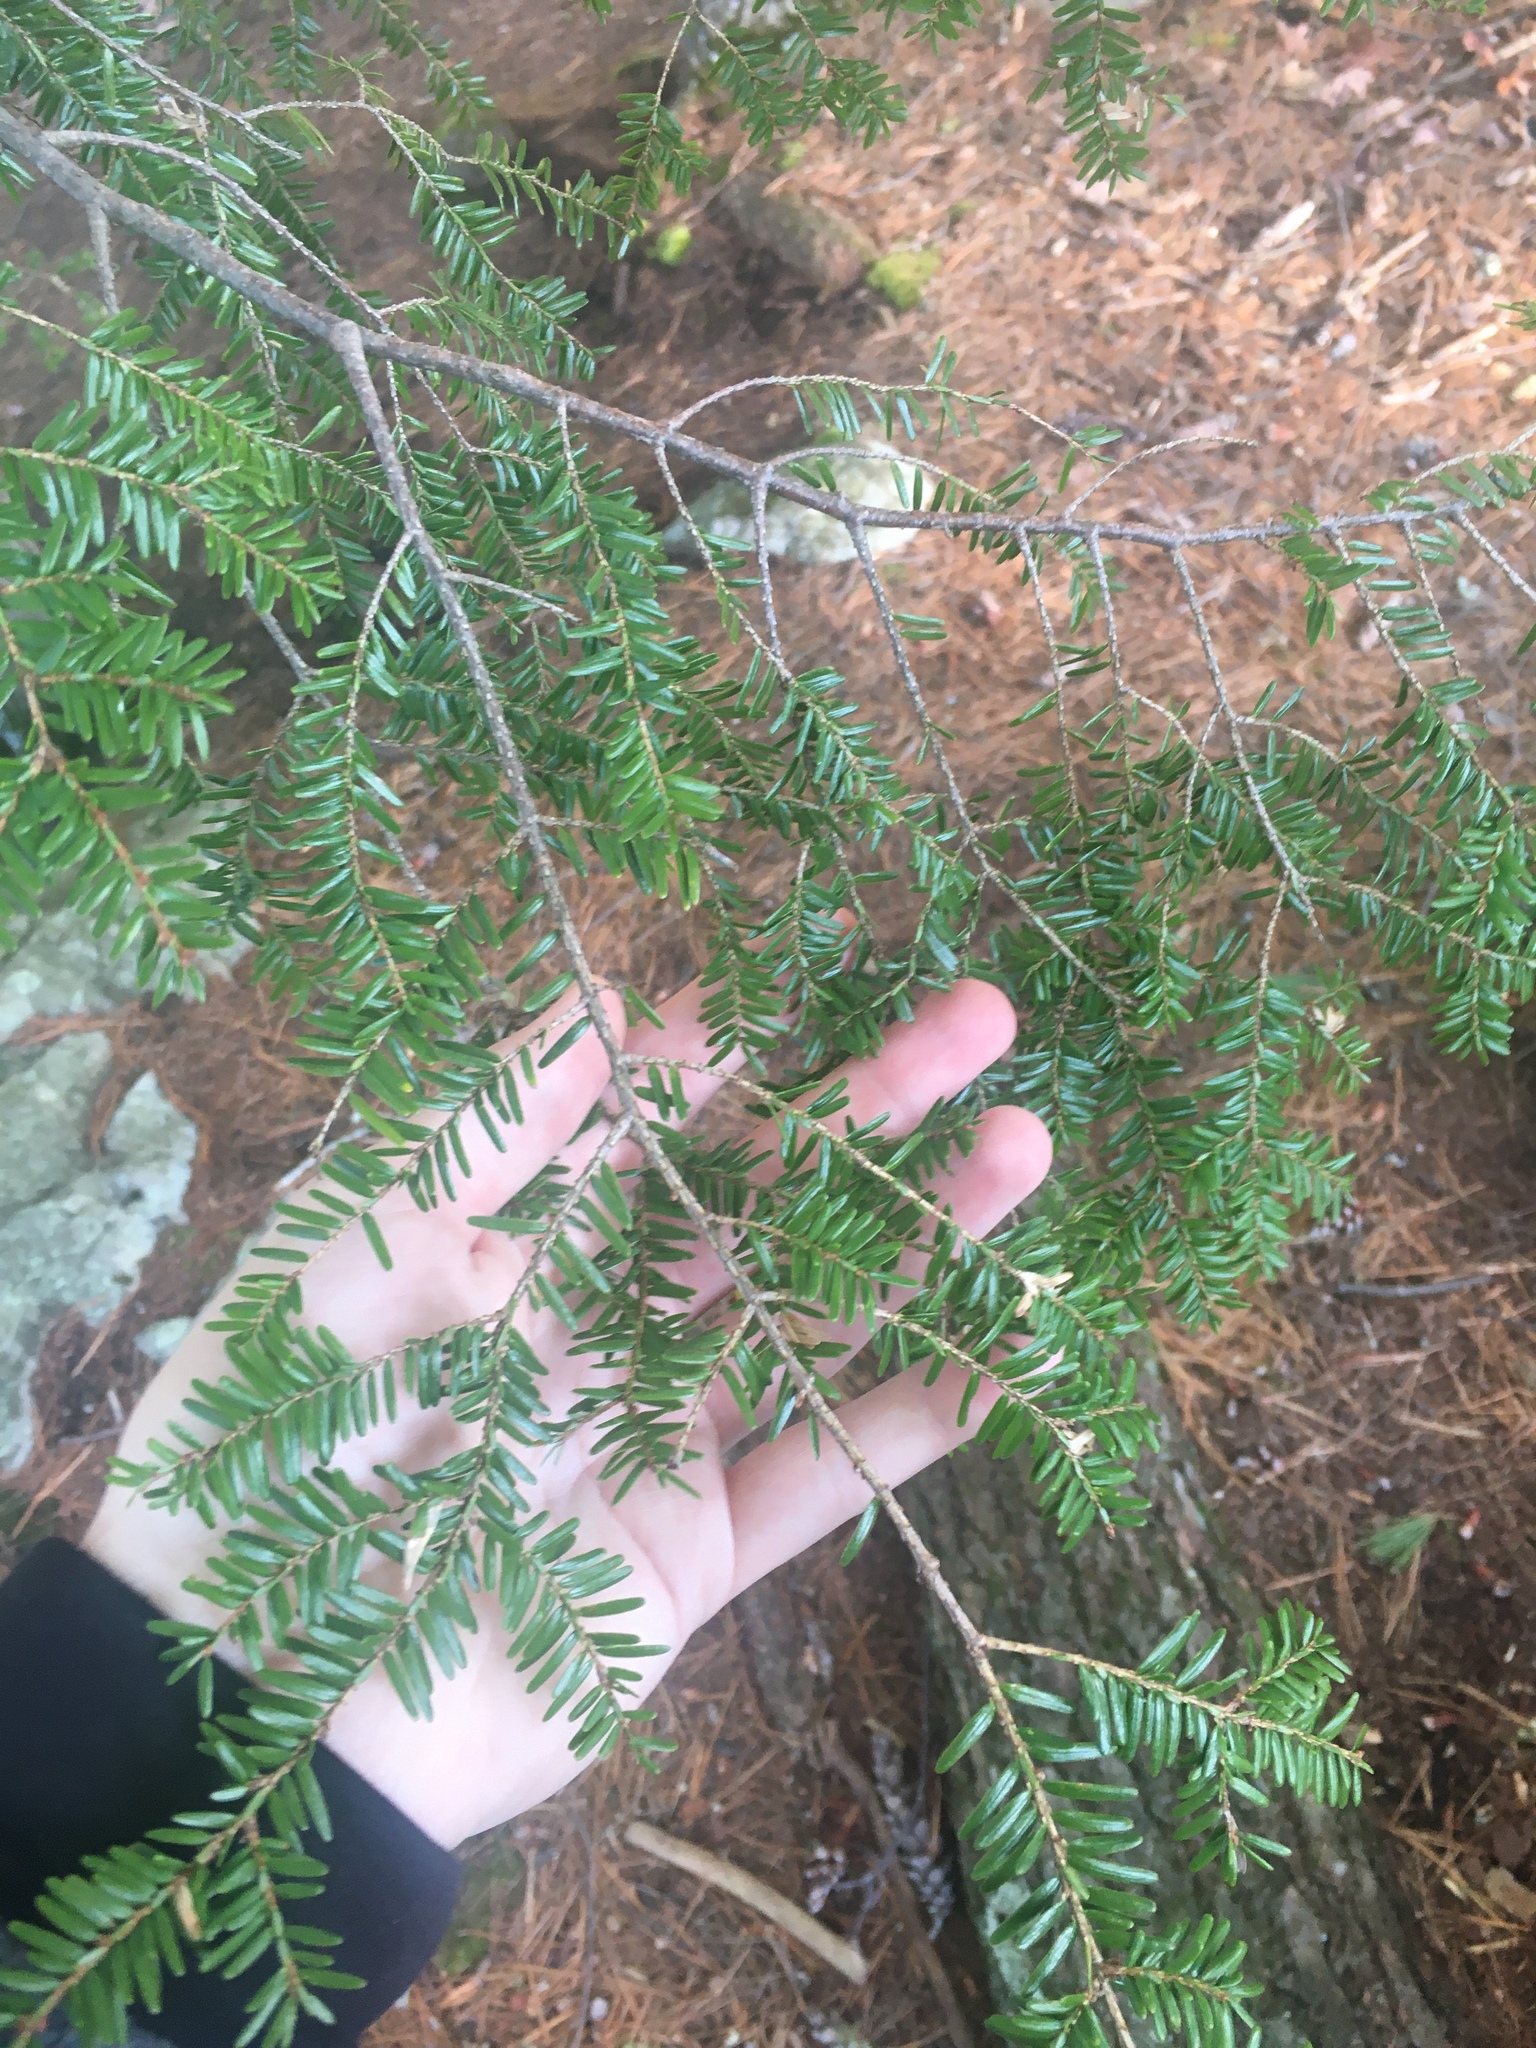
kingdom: Plantae
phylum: Tracheophyta
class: Pinopsida
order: Pinales
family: Pinaceae
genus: Tsuga
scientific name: Tsuga canadensis
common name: Eastern hemlock
